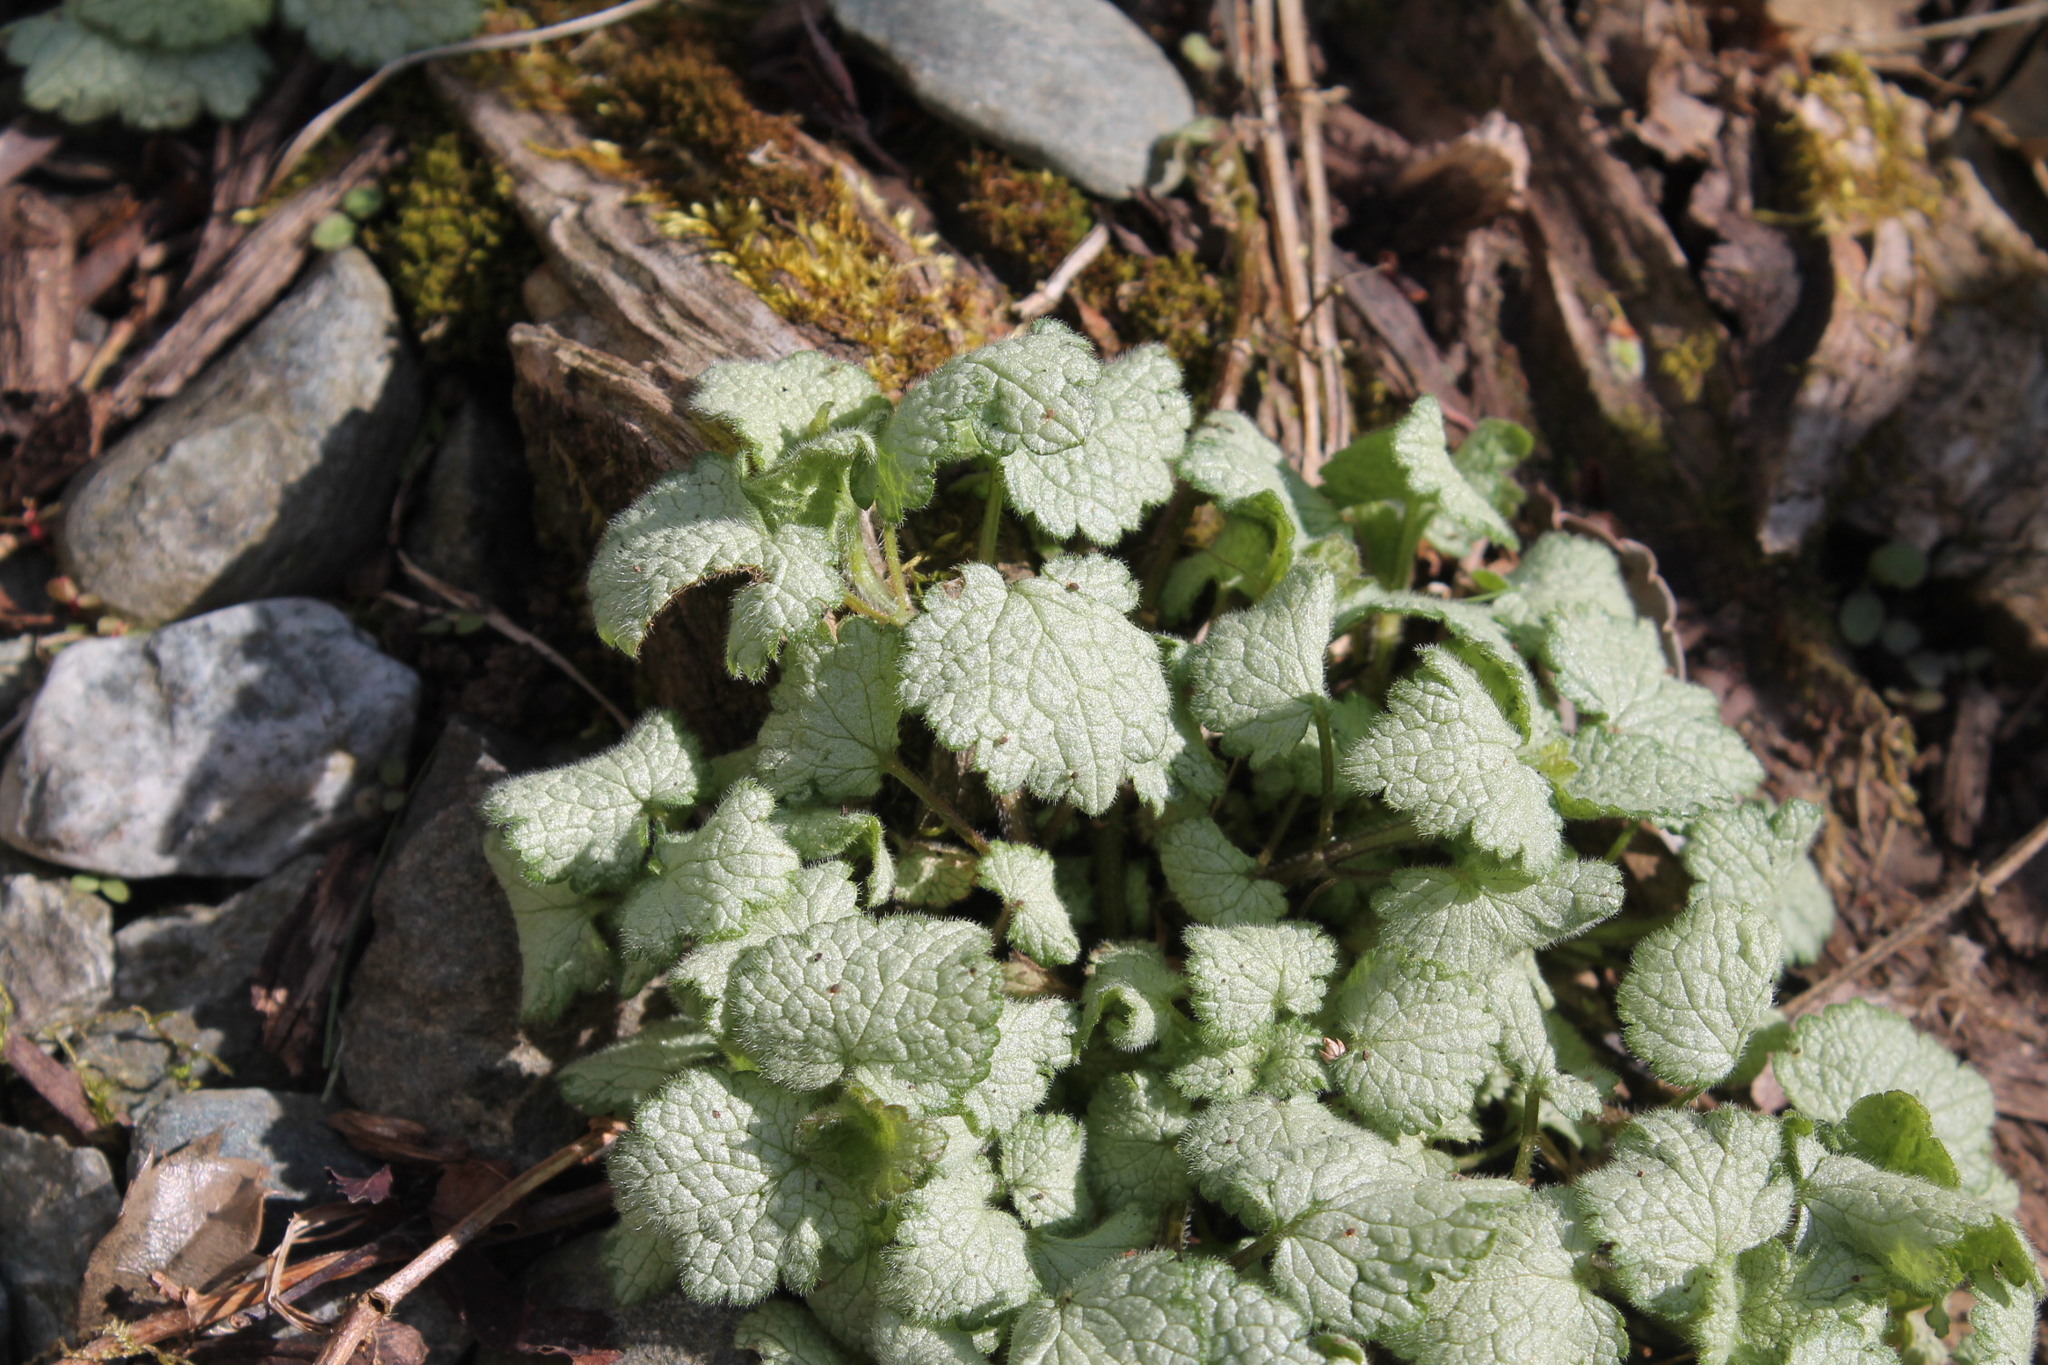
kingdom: Plantae
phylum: Tracheophyta
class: Magnoliopsida
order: Lamiales
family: Lamiaceae
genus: Lamium
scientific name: Lamium maculatum
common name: Spotted dead-nettle
